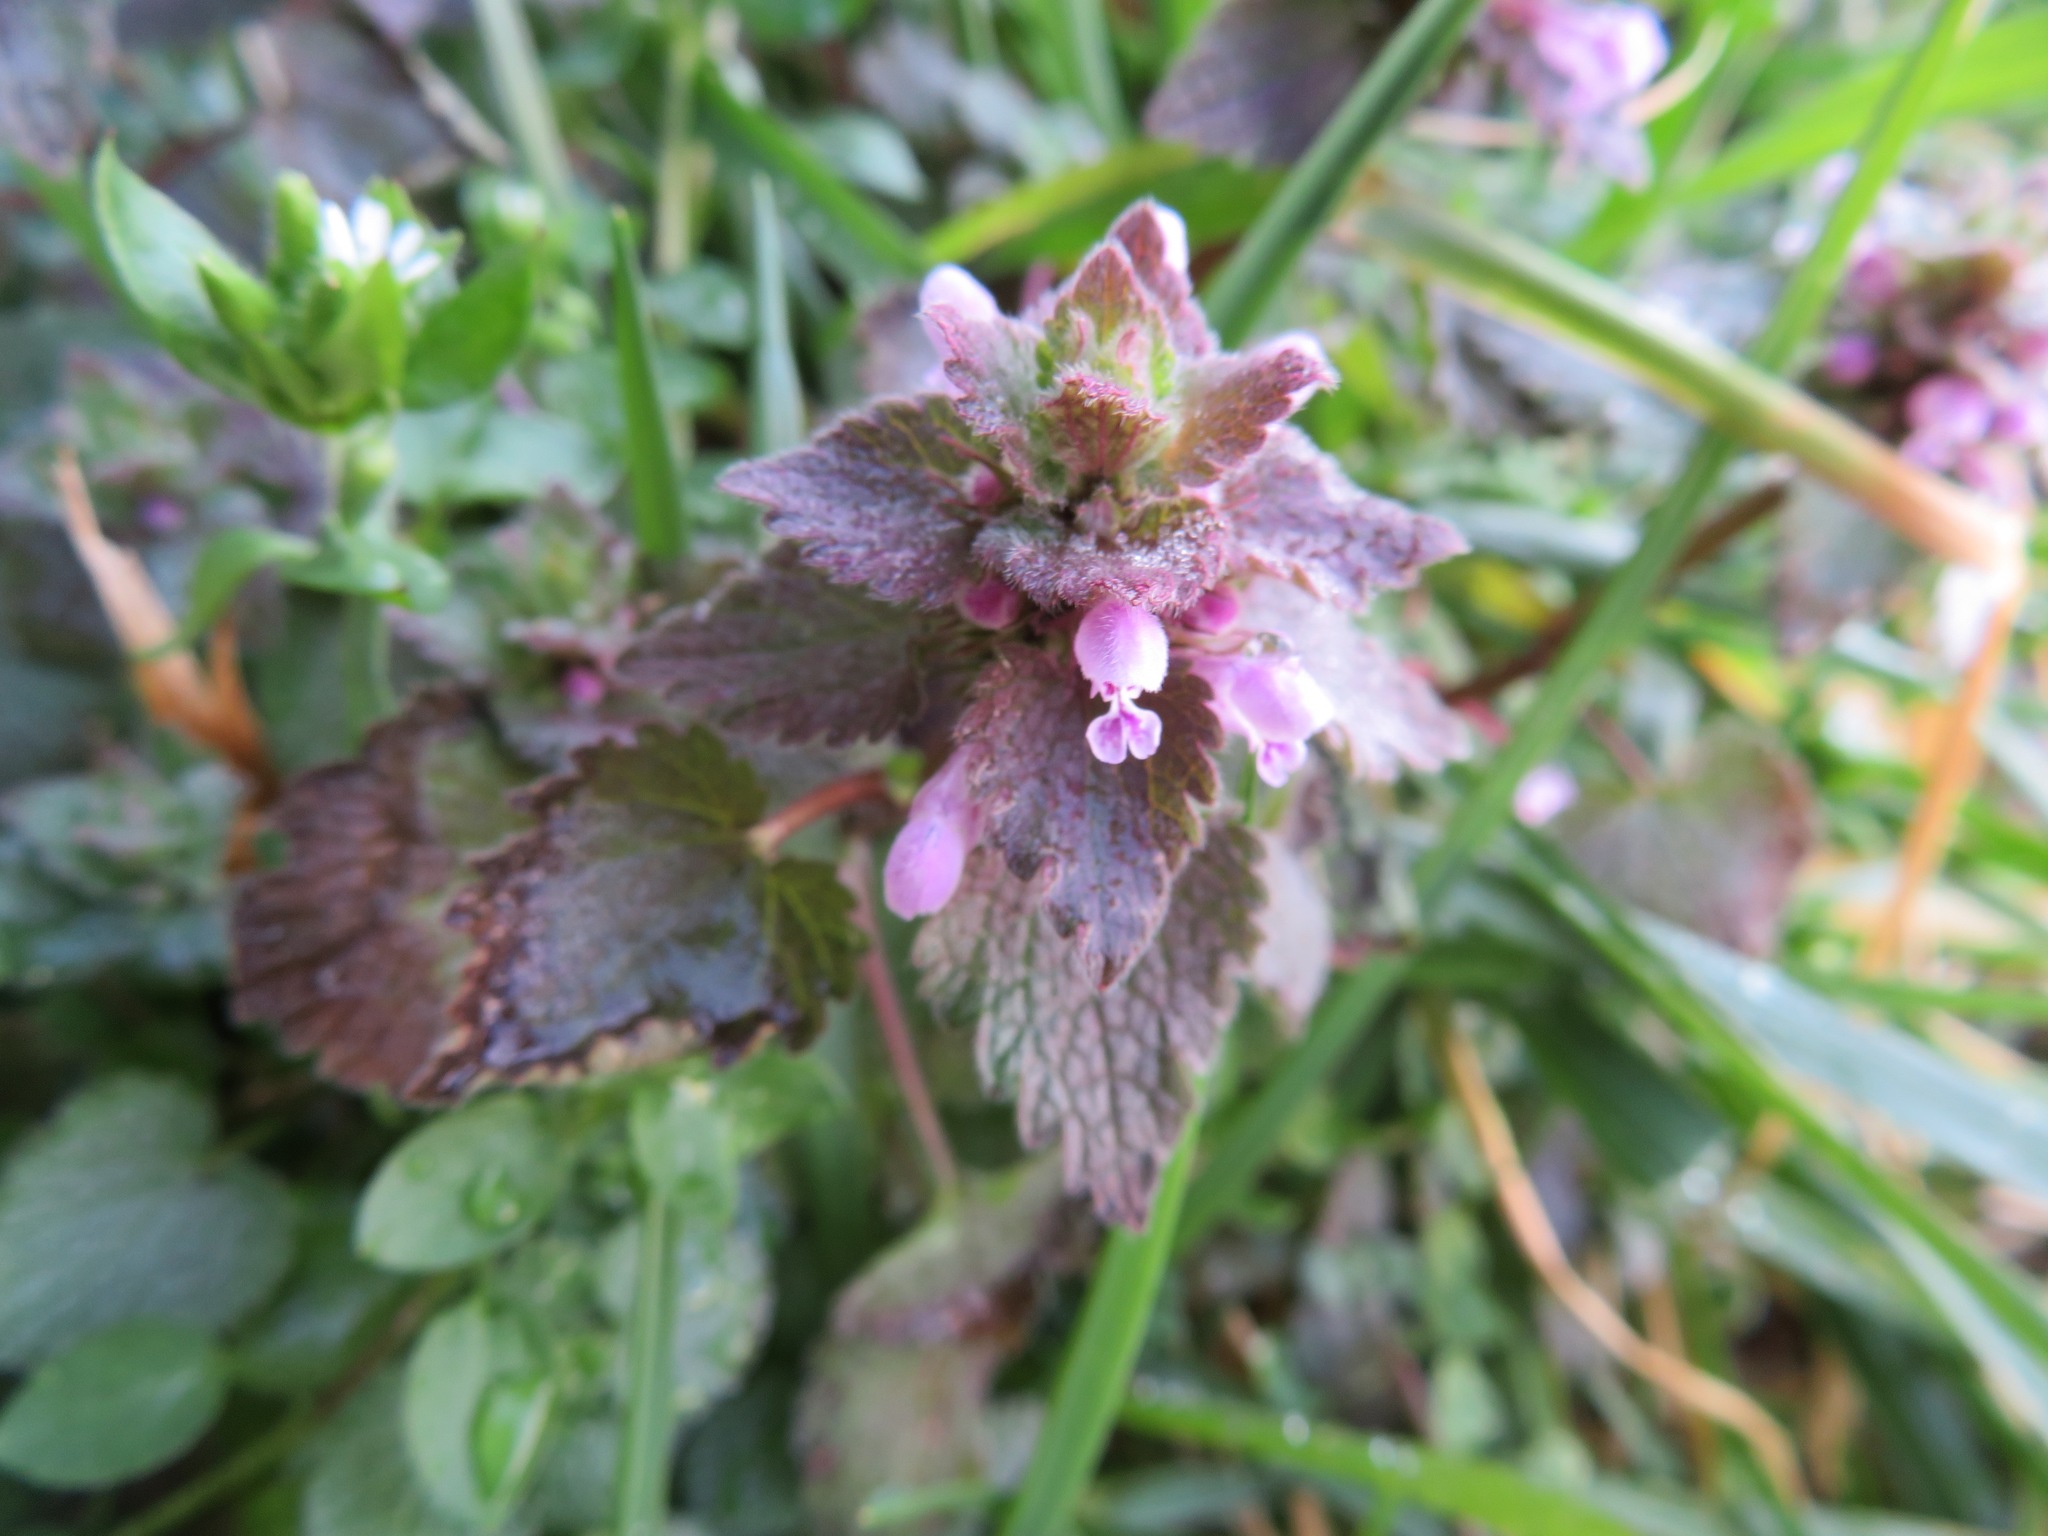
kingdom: Plantae
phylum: Tracheophyta
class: Magnoliopsida
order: Lamiales
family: Lamiaceae
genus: Lamium
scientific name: Lamium purpureum
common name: Red dead-nettle
